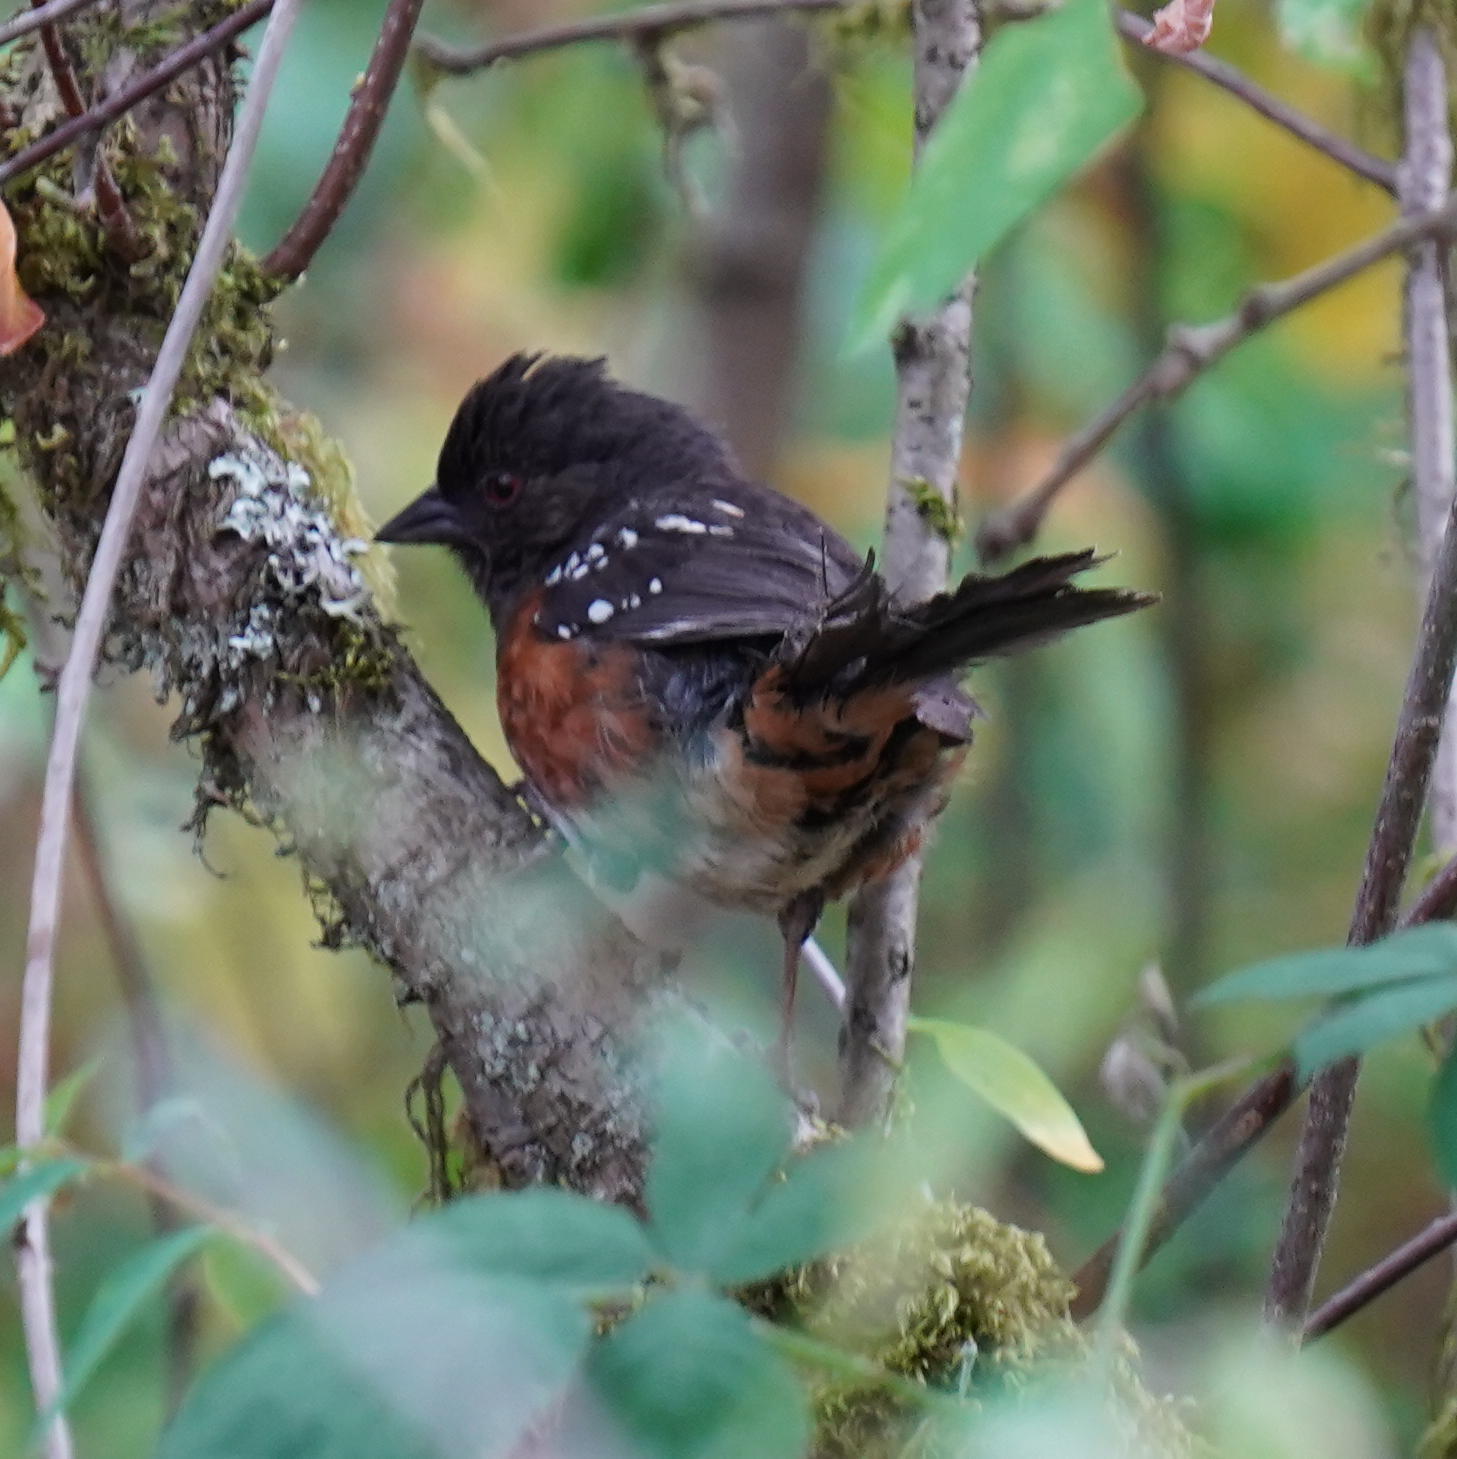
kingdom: Animalia
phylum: Chordata
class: Aves
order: Passeriformes
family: Passerellidae
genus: Pipilo
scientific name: Pipilo maculatus
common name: Spotted towhee
